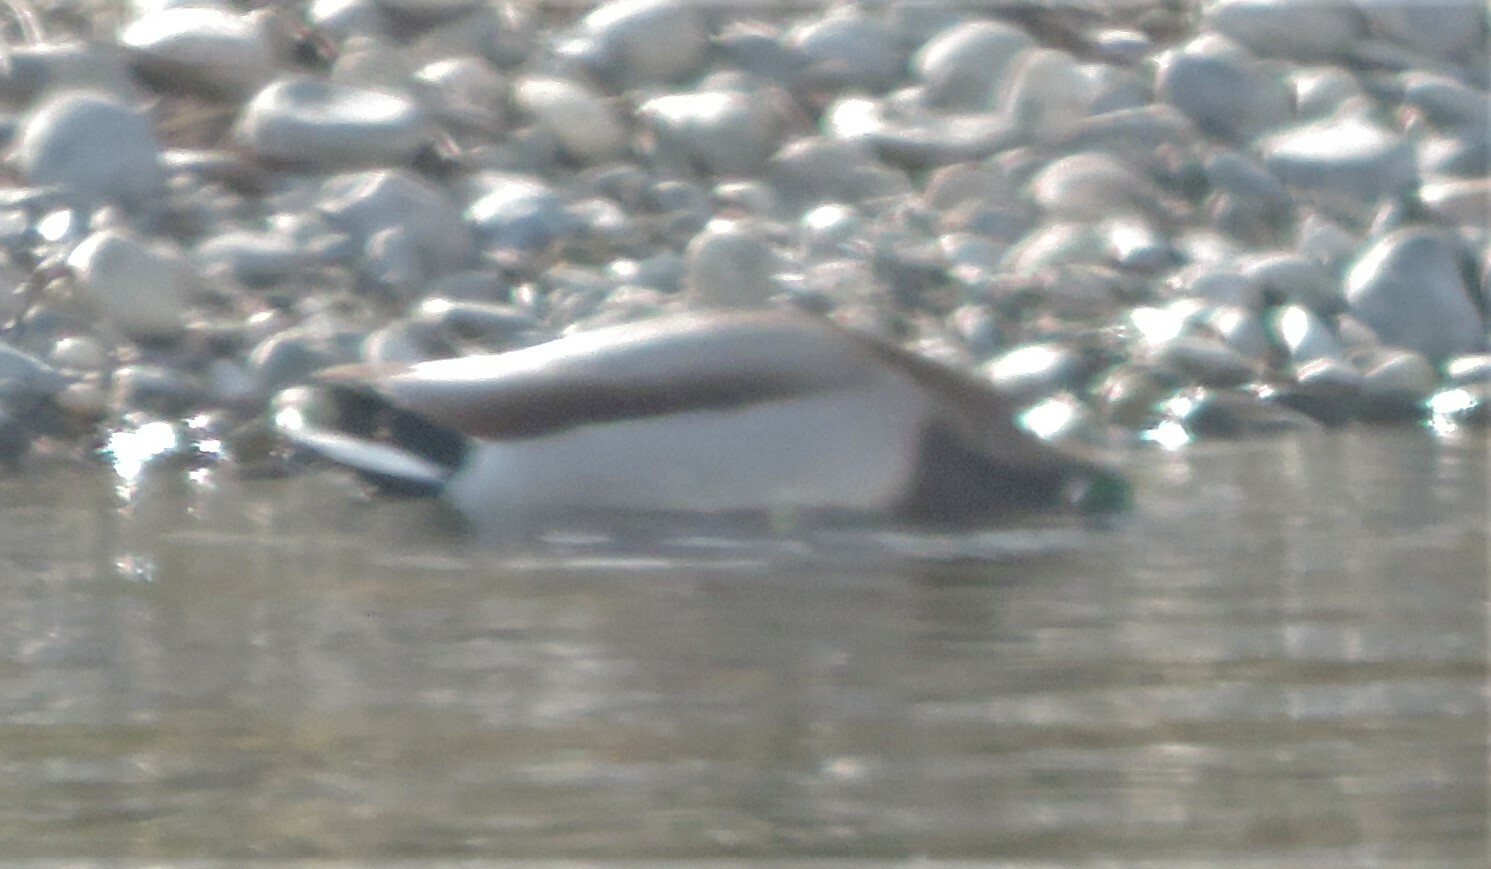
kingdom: Animalia
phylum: Chordata
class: Aves
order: Anseriformes
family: Anatidae
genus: Anas
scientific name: Anas platyrhynchos
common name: Mallard
